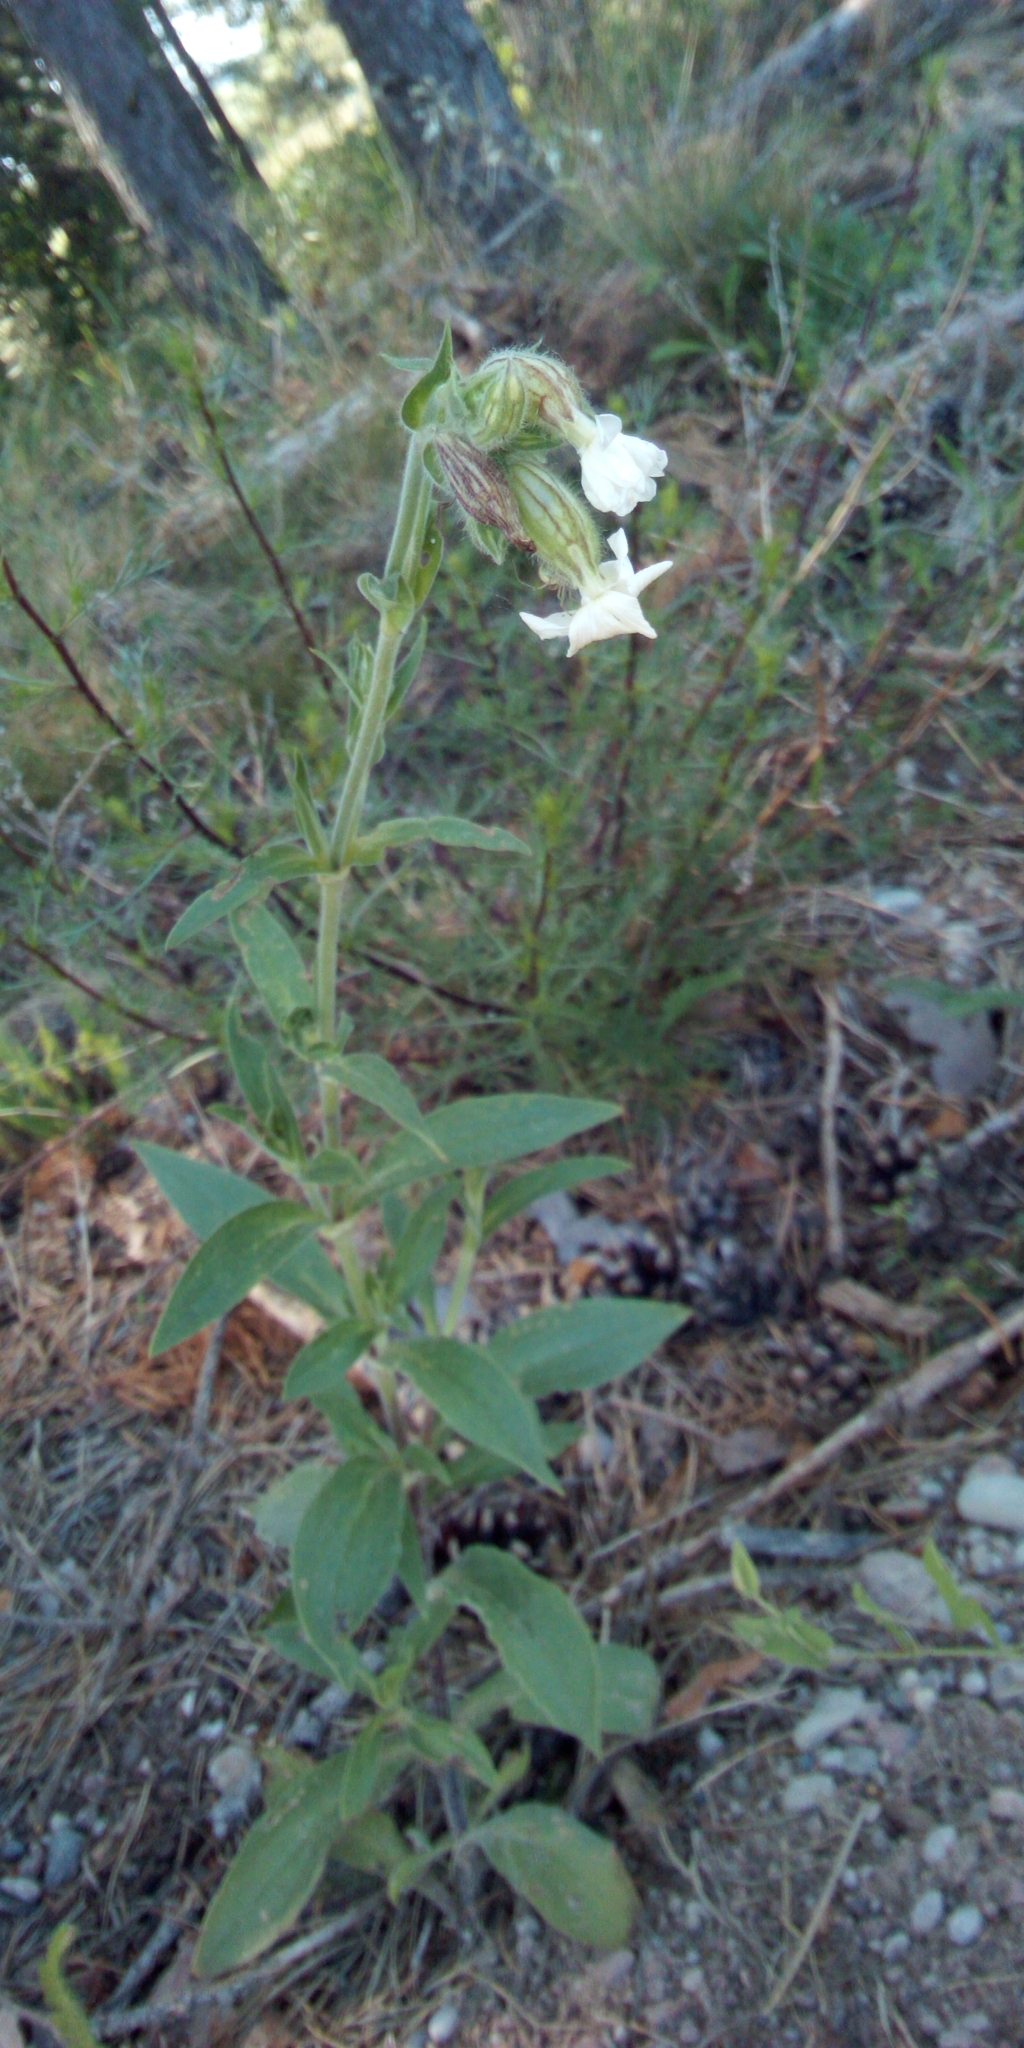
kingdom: Plantae
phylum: Tracheophyta
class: Magnoliopsida
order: Caryophyllales
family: Caryophyllaceae
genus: Silene
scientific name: Silene latifolia
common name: White campion
